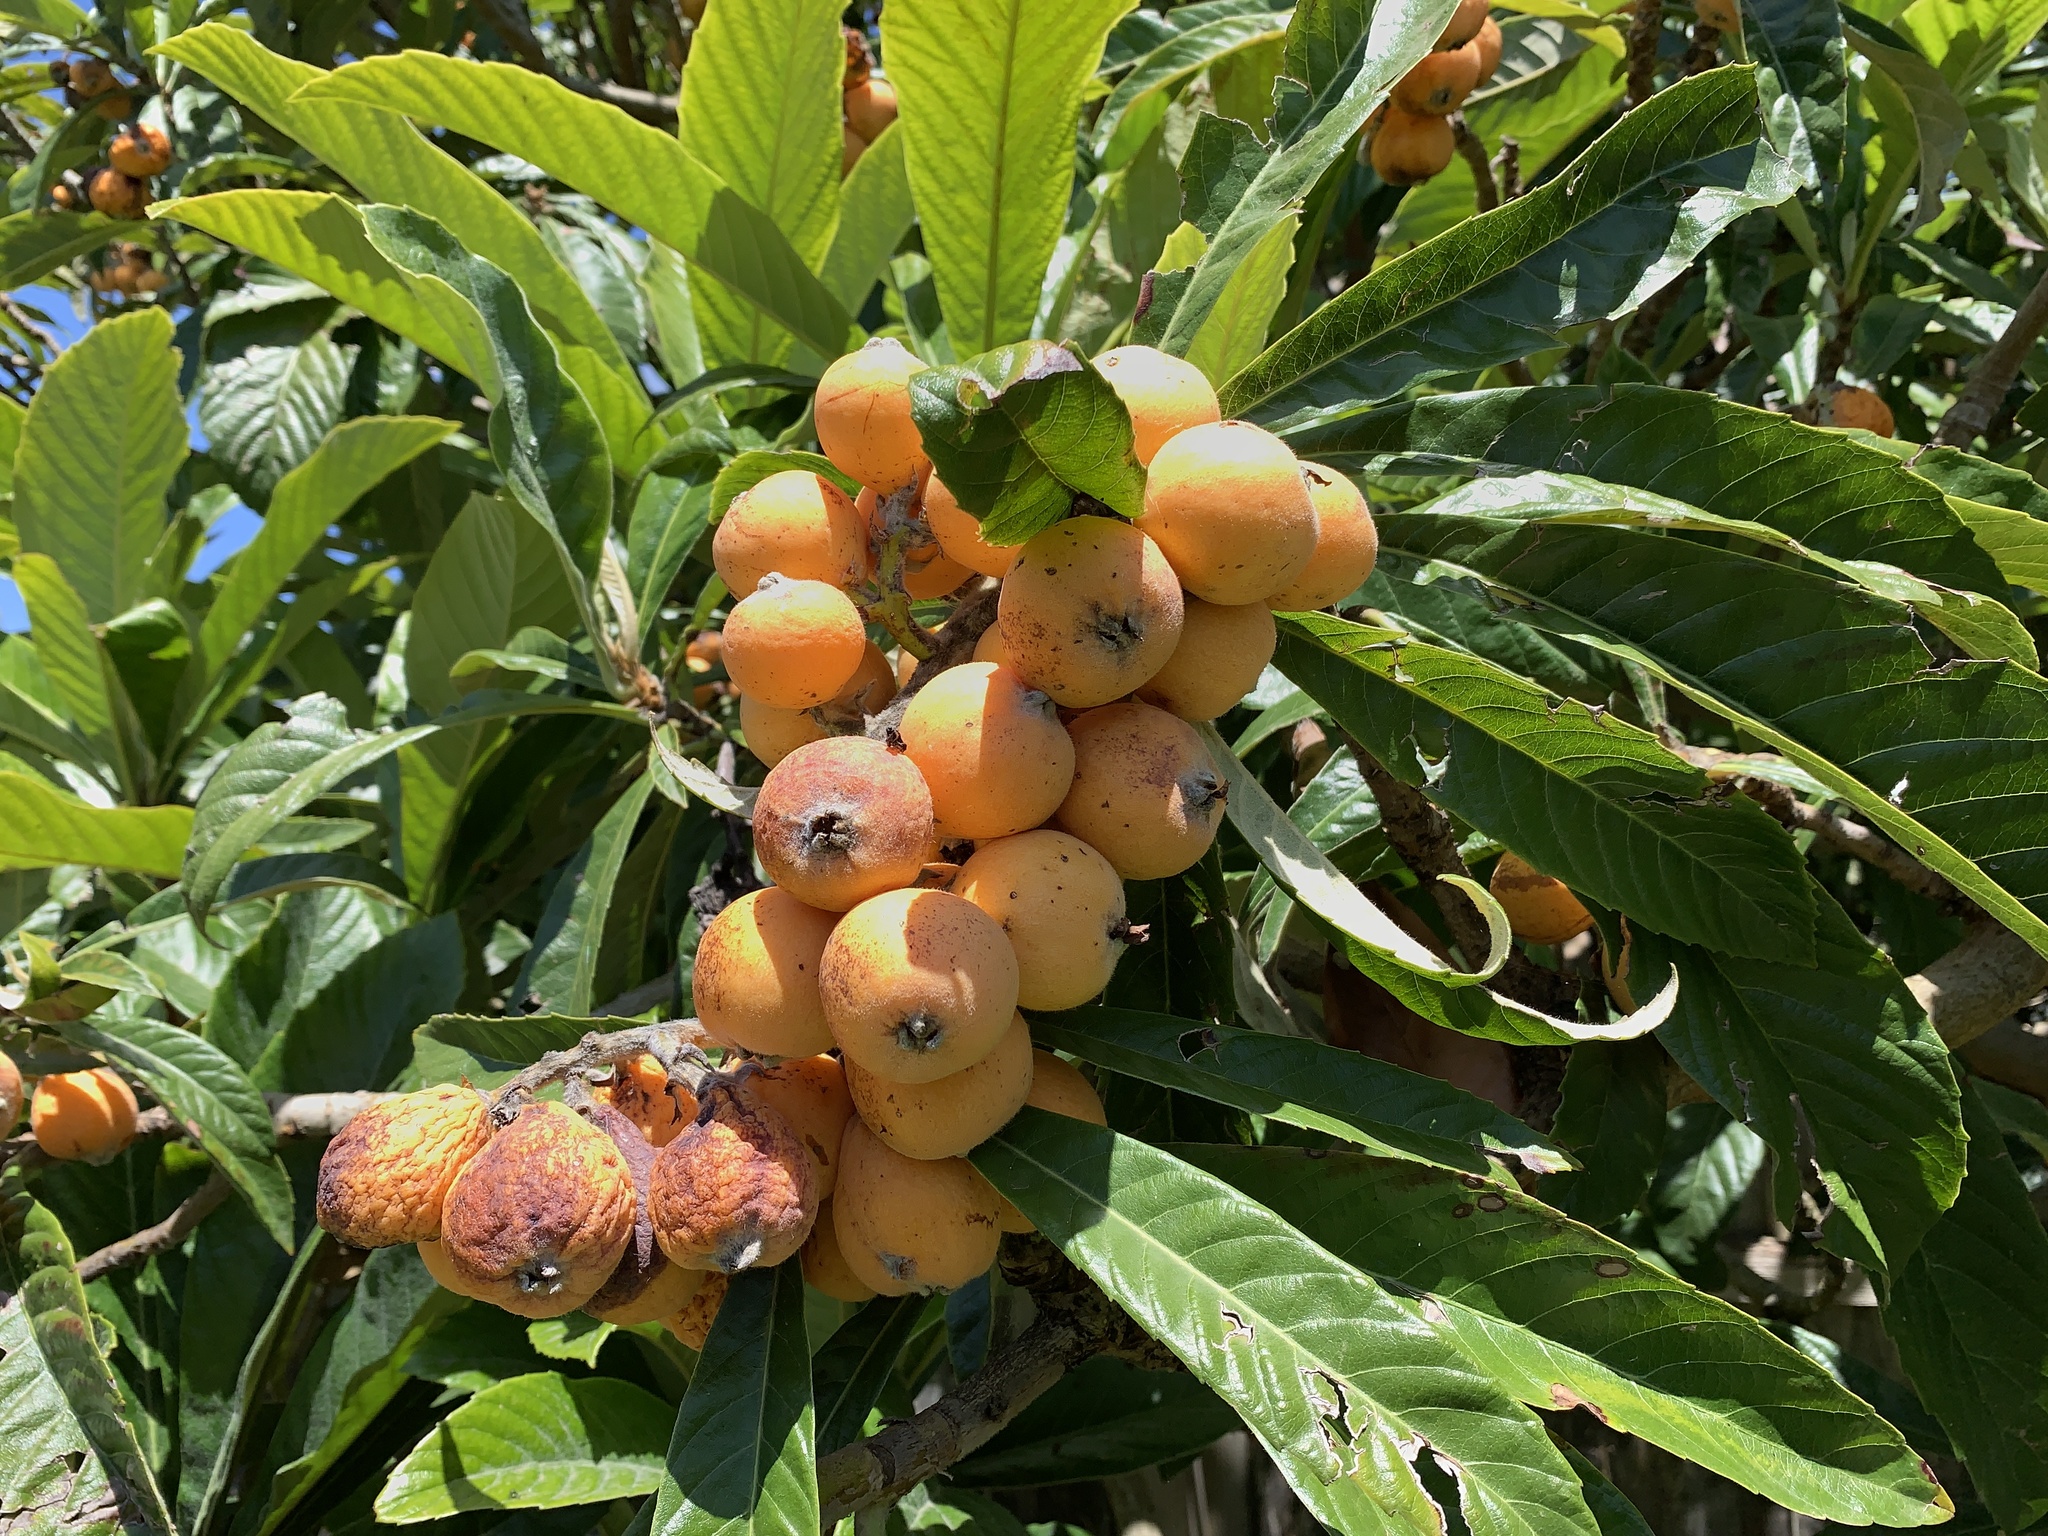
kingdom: Plantae
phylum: Tracheophyta
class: Magnoliopsida
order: Rosales
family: Rosaceae
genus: Rhaphiolepis
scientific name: Rhaphiolepis bibas
